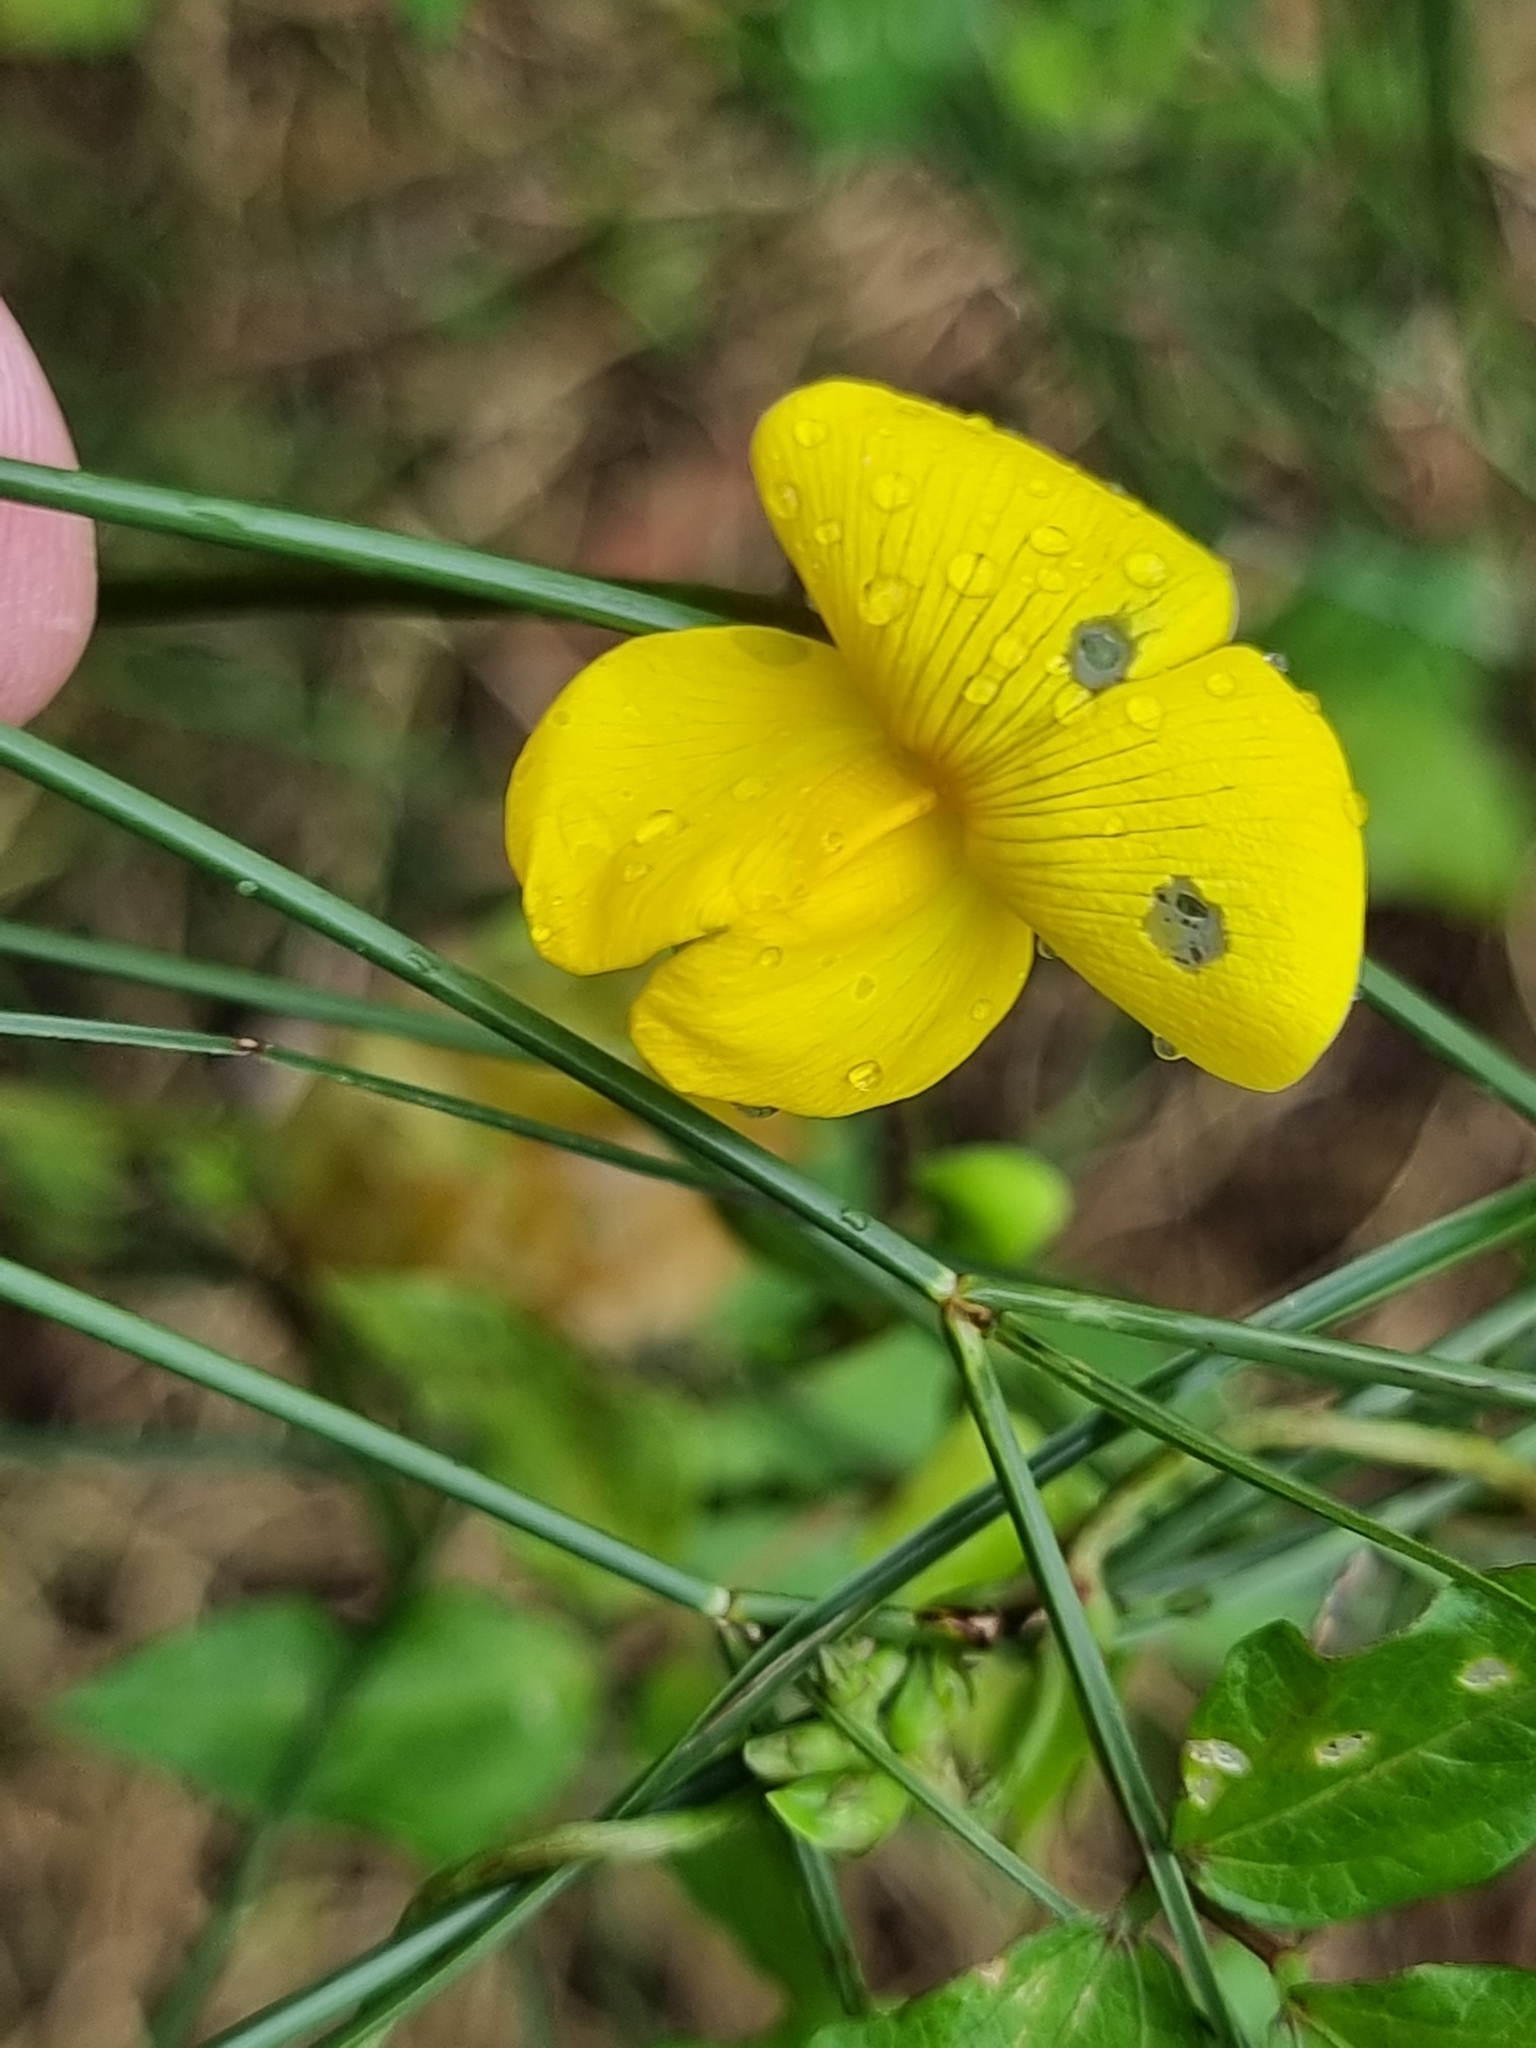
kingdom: Plantae
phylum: Tracheophyta
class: Magnoliopsida
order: Fabales
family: Fabaceae
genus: Vigna
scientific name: Vigna luteola
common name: Hairypod cowpea
